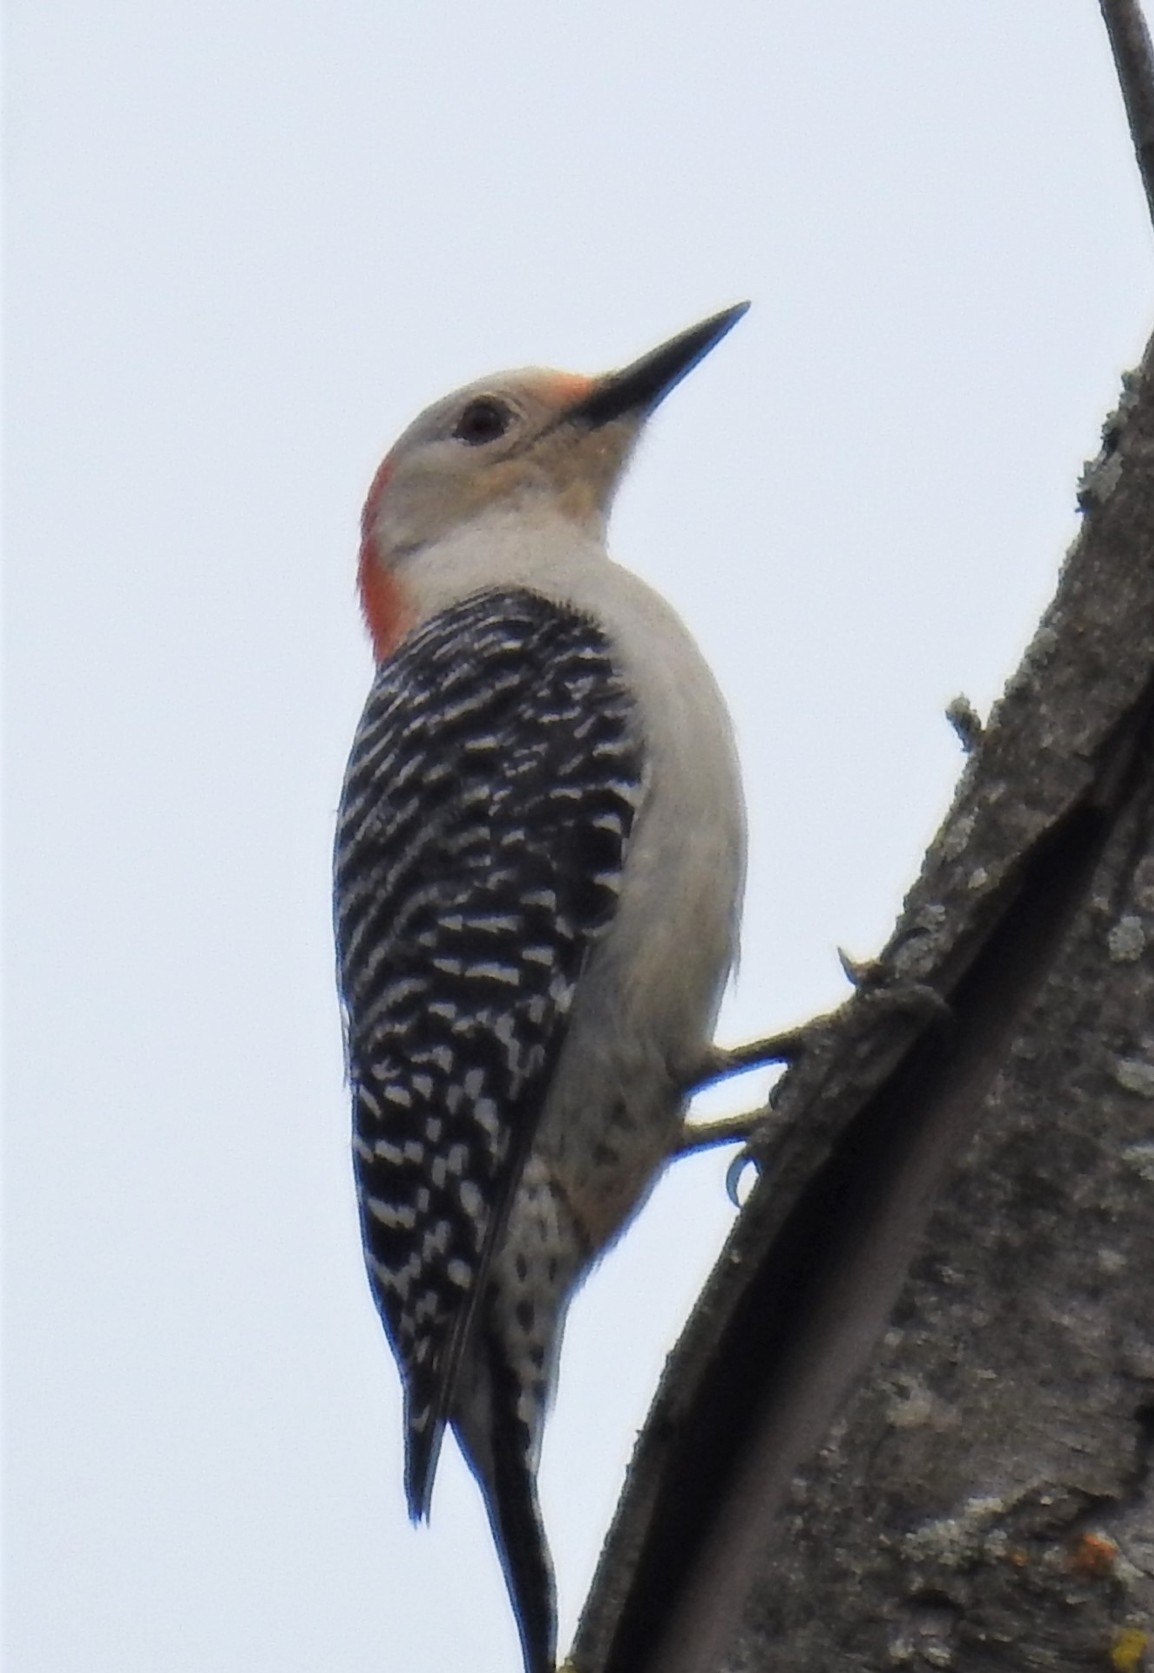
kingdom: Animalia
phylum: Chordata
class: Aves
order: Piciformes
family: Picidae
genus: Melanerpes
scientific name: Melanerpes carolinus
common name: Red-bellied woodpecker
